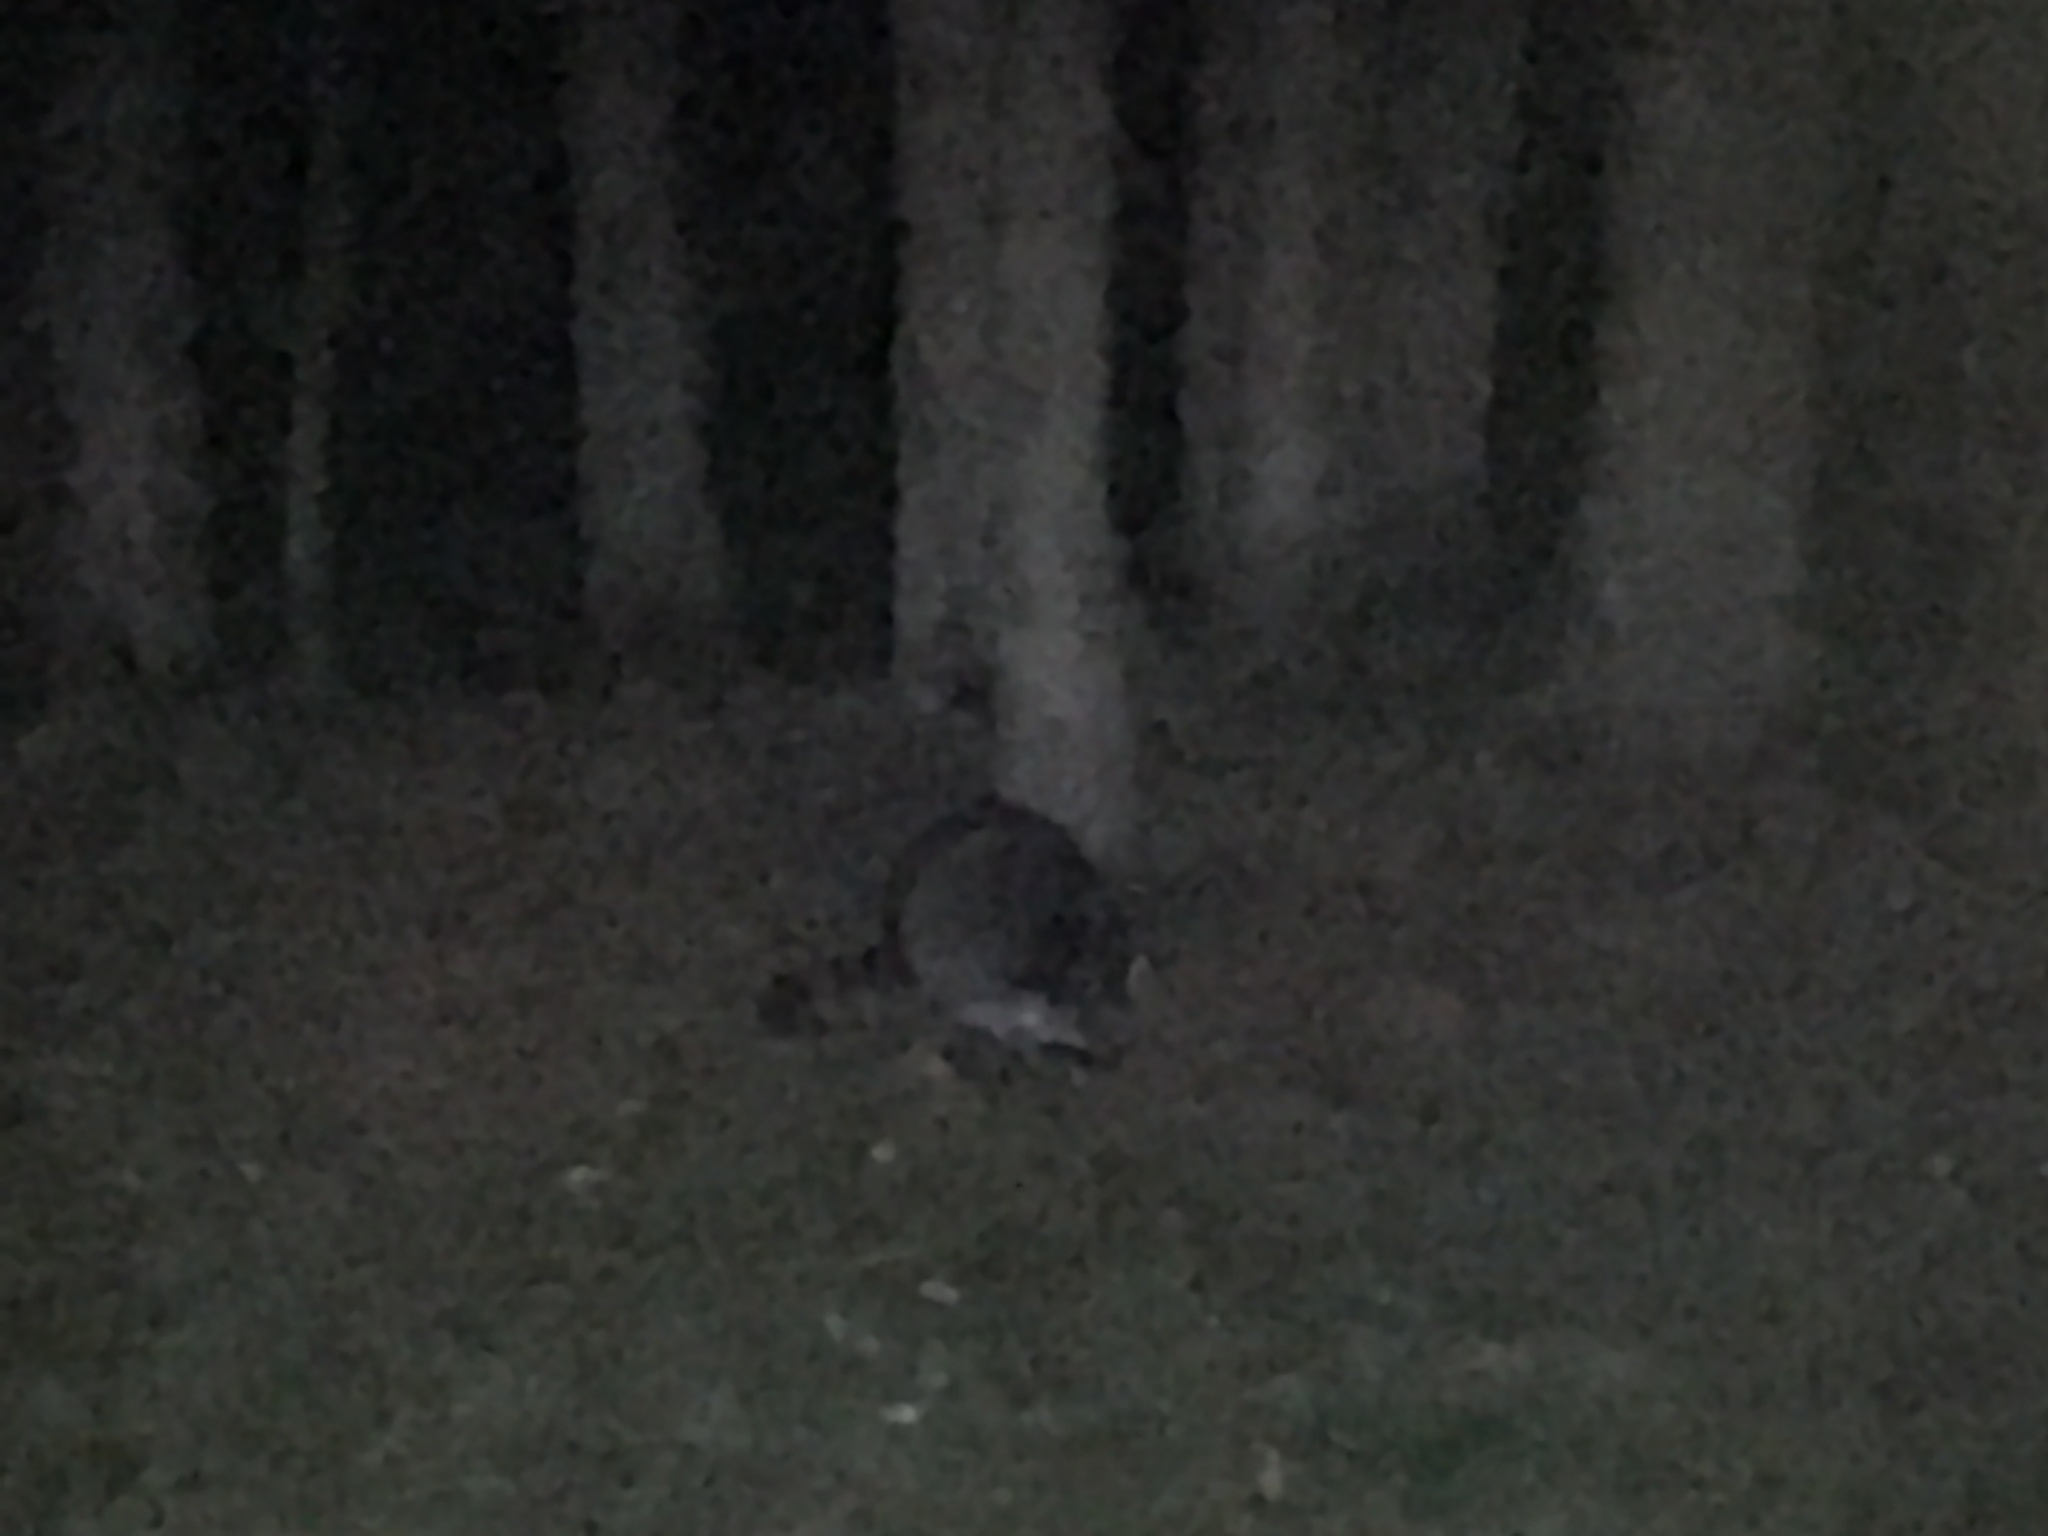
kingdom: Animalia
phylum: Chordata
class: Mammalia
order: Carnivora
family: Procyonidae
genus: Procyon
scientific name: Procyon lotor
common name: Raccoon
